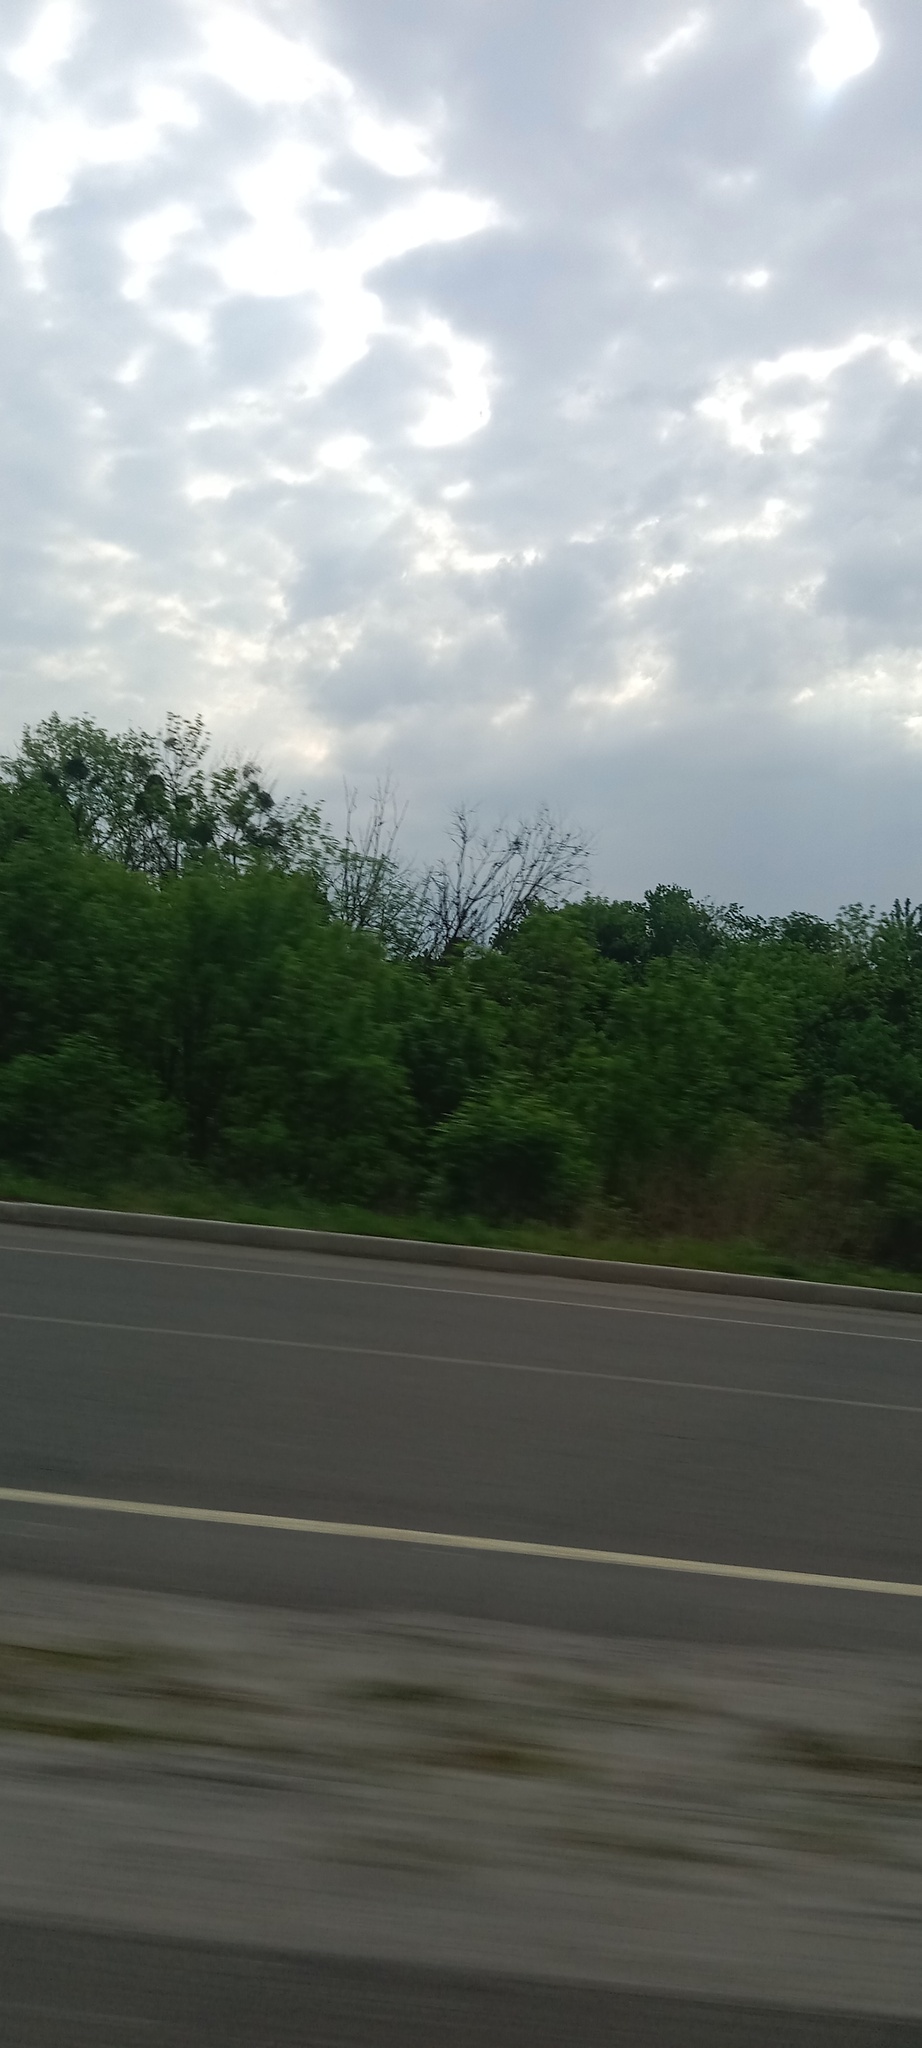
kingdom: Plantae
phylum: Tracheophyta
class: Magnoliopsida
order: Santalales
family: Viscaceae
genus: Viscum
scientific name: Viscum album
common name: Mistletoe
